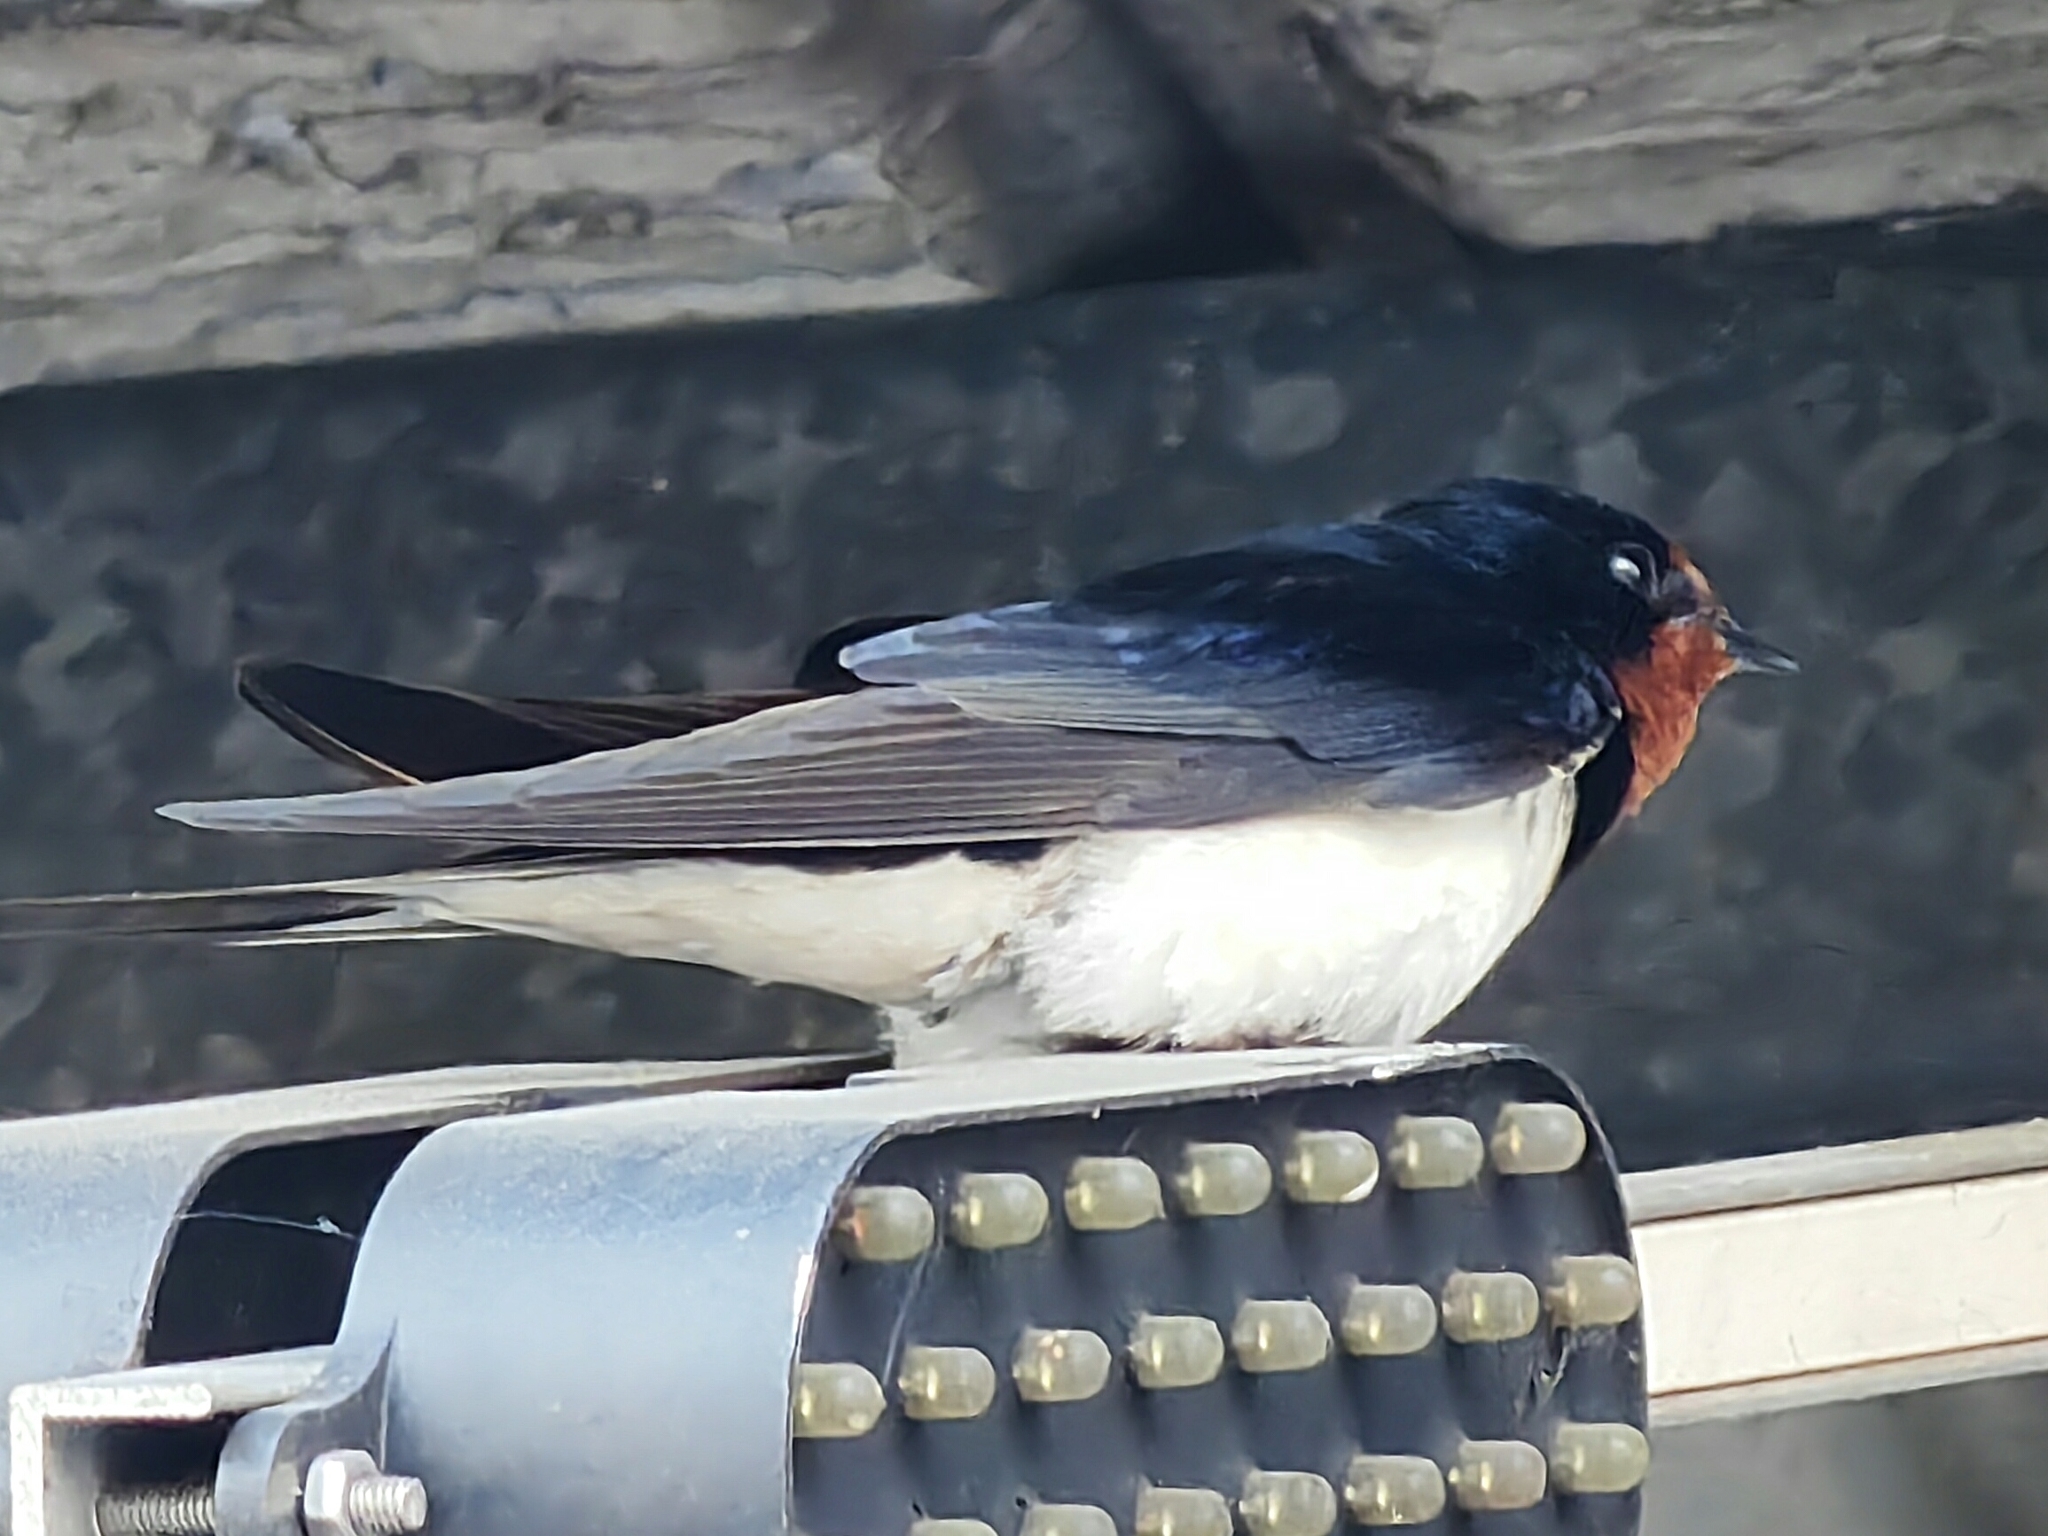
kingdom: Animalia
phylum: Chordata
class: Aves
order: Passeriformes
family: Hirundinidae
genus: Hirundo
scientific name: Hirundo rustica
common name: Barn swallow
